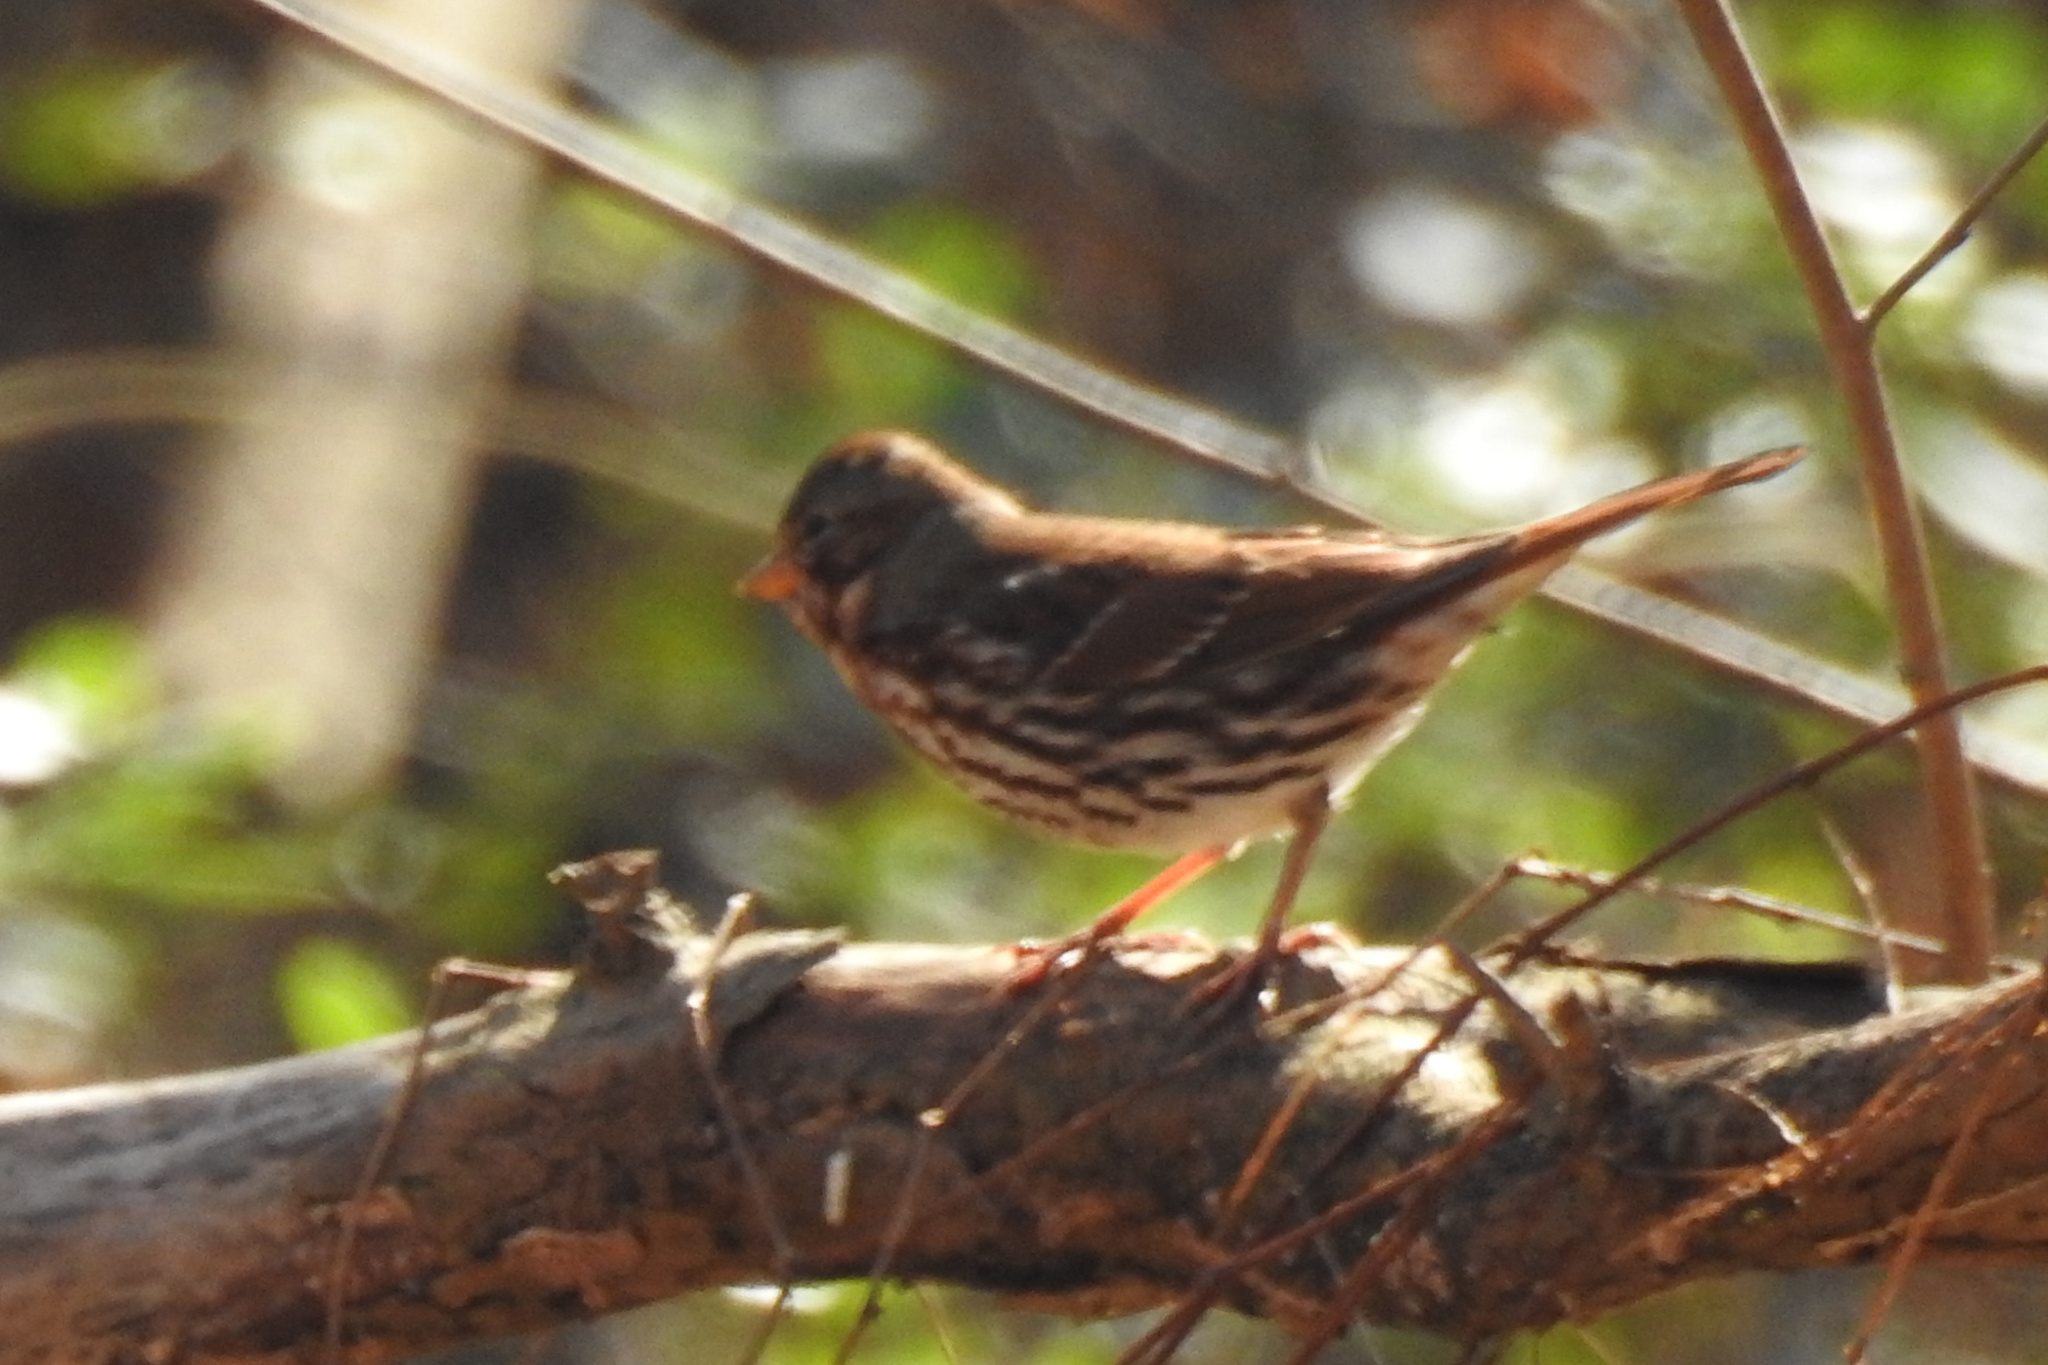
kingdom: Animalia
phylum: Chordata
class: Aves
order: Passeriformes
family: Passerellidae
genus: Passerella
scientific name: Passerella iliaca
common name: Fox sparrow
